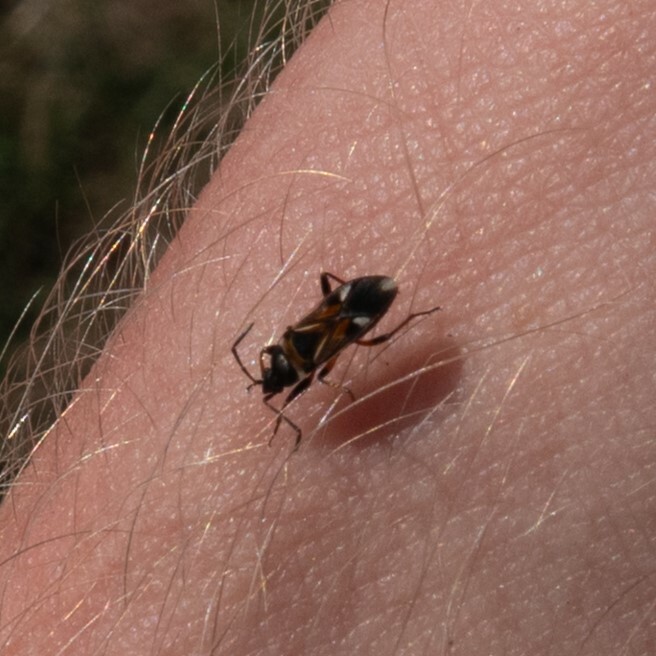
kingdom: Animalia
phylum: Arthropoda
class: Insecta
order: Hemiptera
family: Rhyparochromidae
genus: Raglius
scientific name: Raglius alboacuminatus
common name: Dirt-colored seed bug
